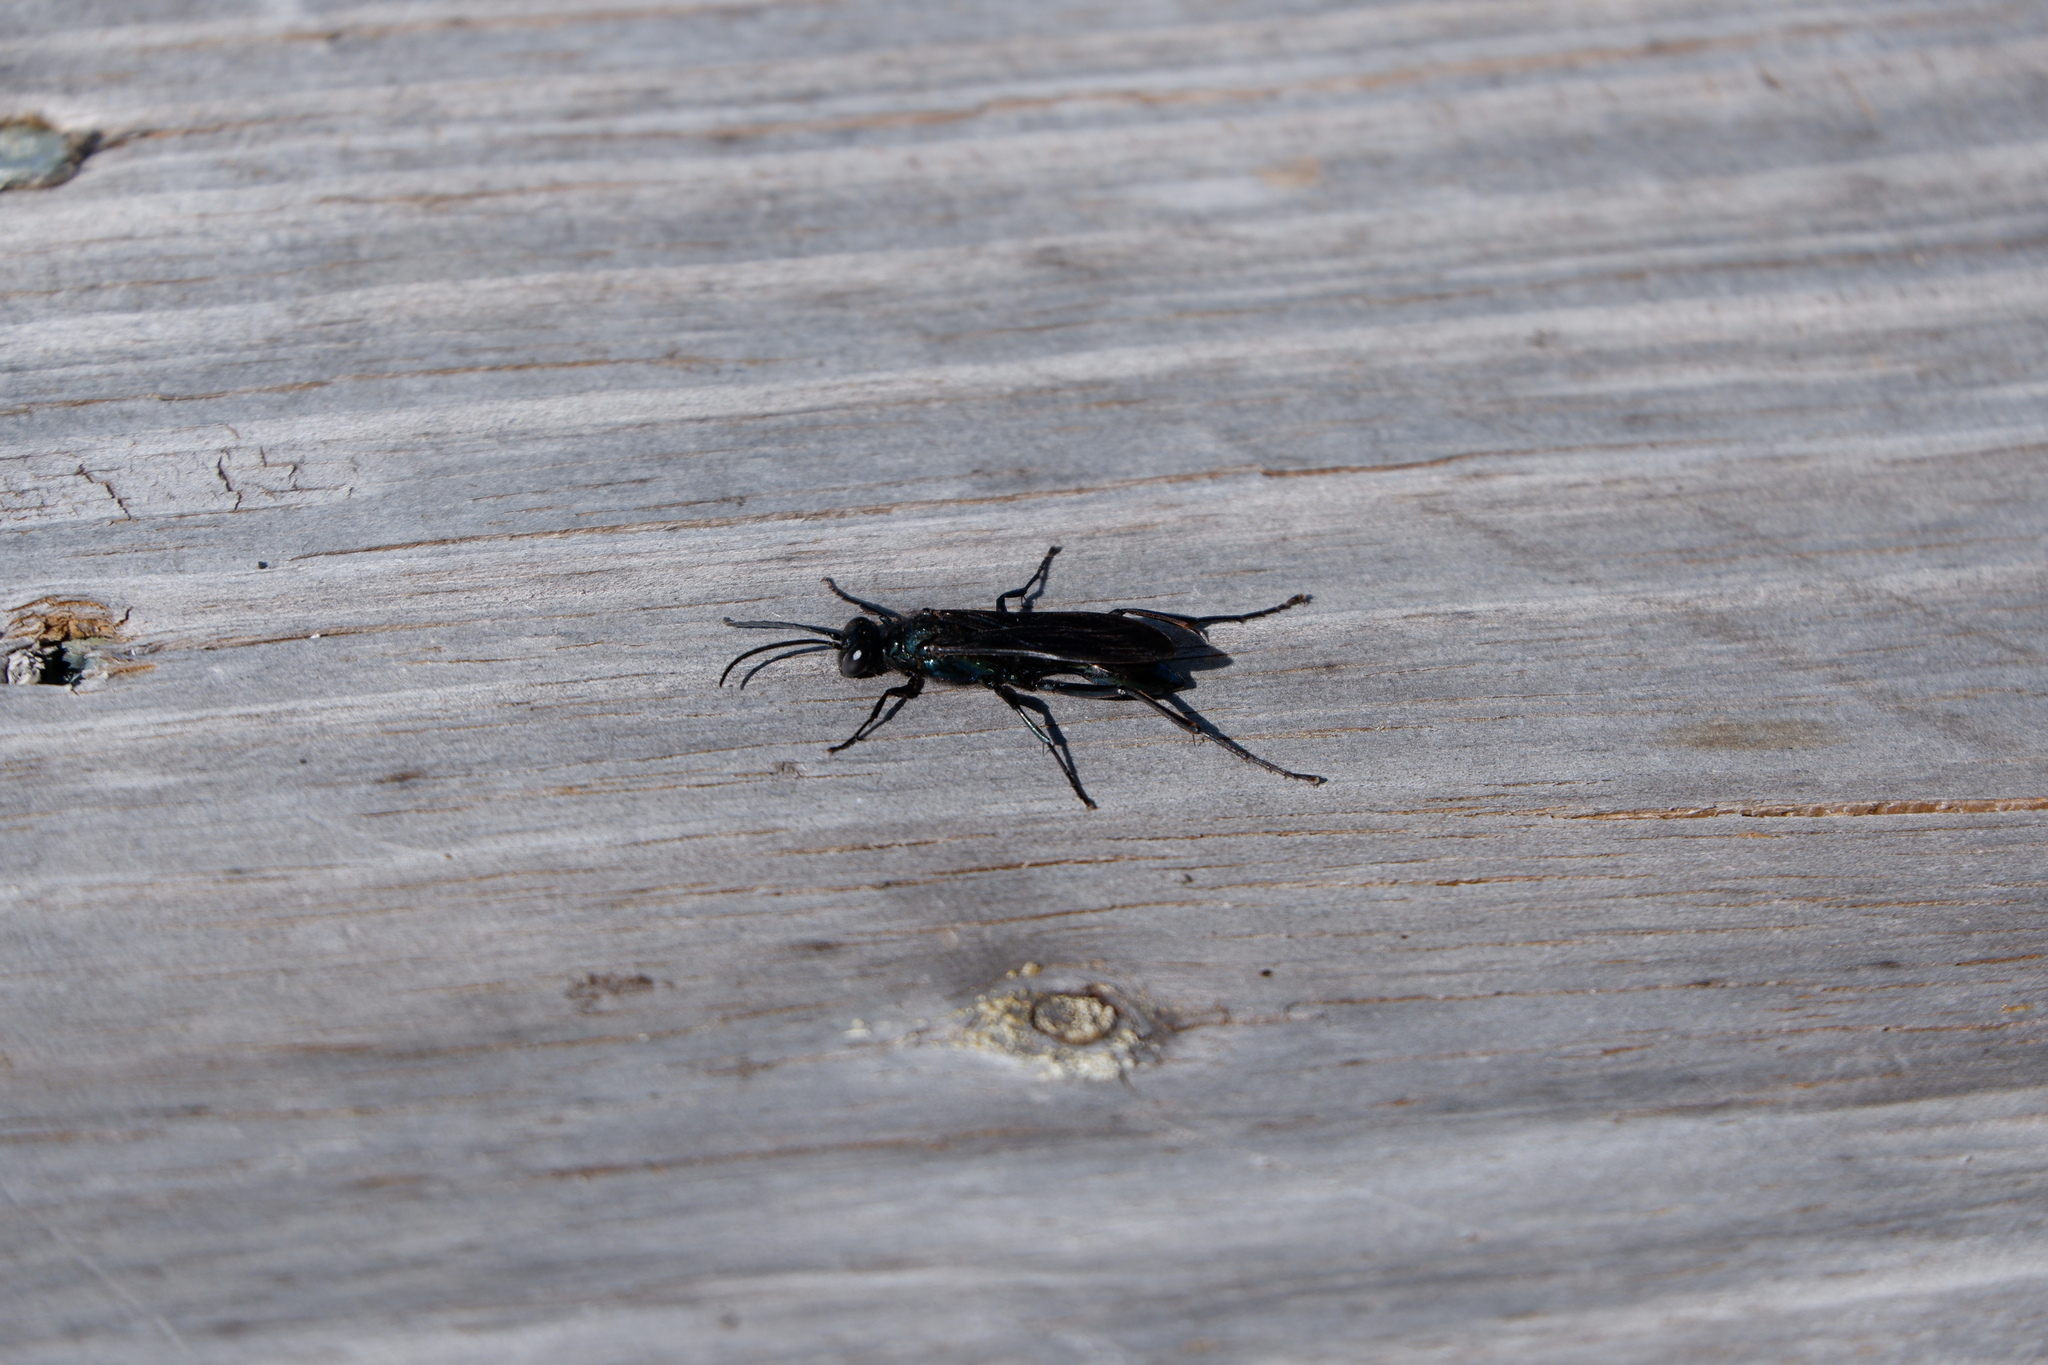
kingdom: Animalia
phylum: Arthropoda
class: Insecta
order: Hymenoptera
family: Sphecidae
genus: Chalybion
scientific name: Chalybion californicum
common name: Mud dauber
